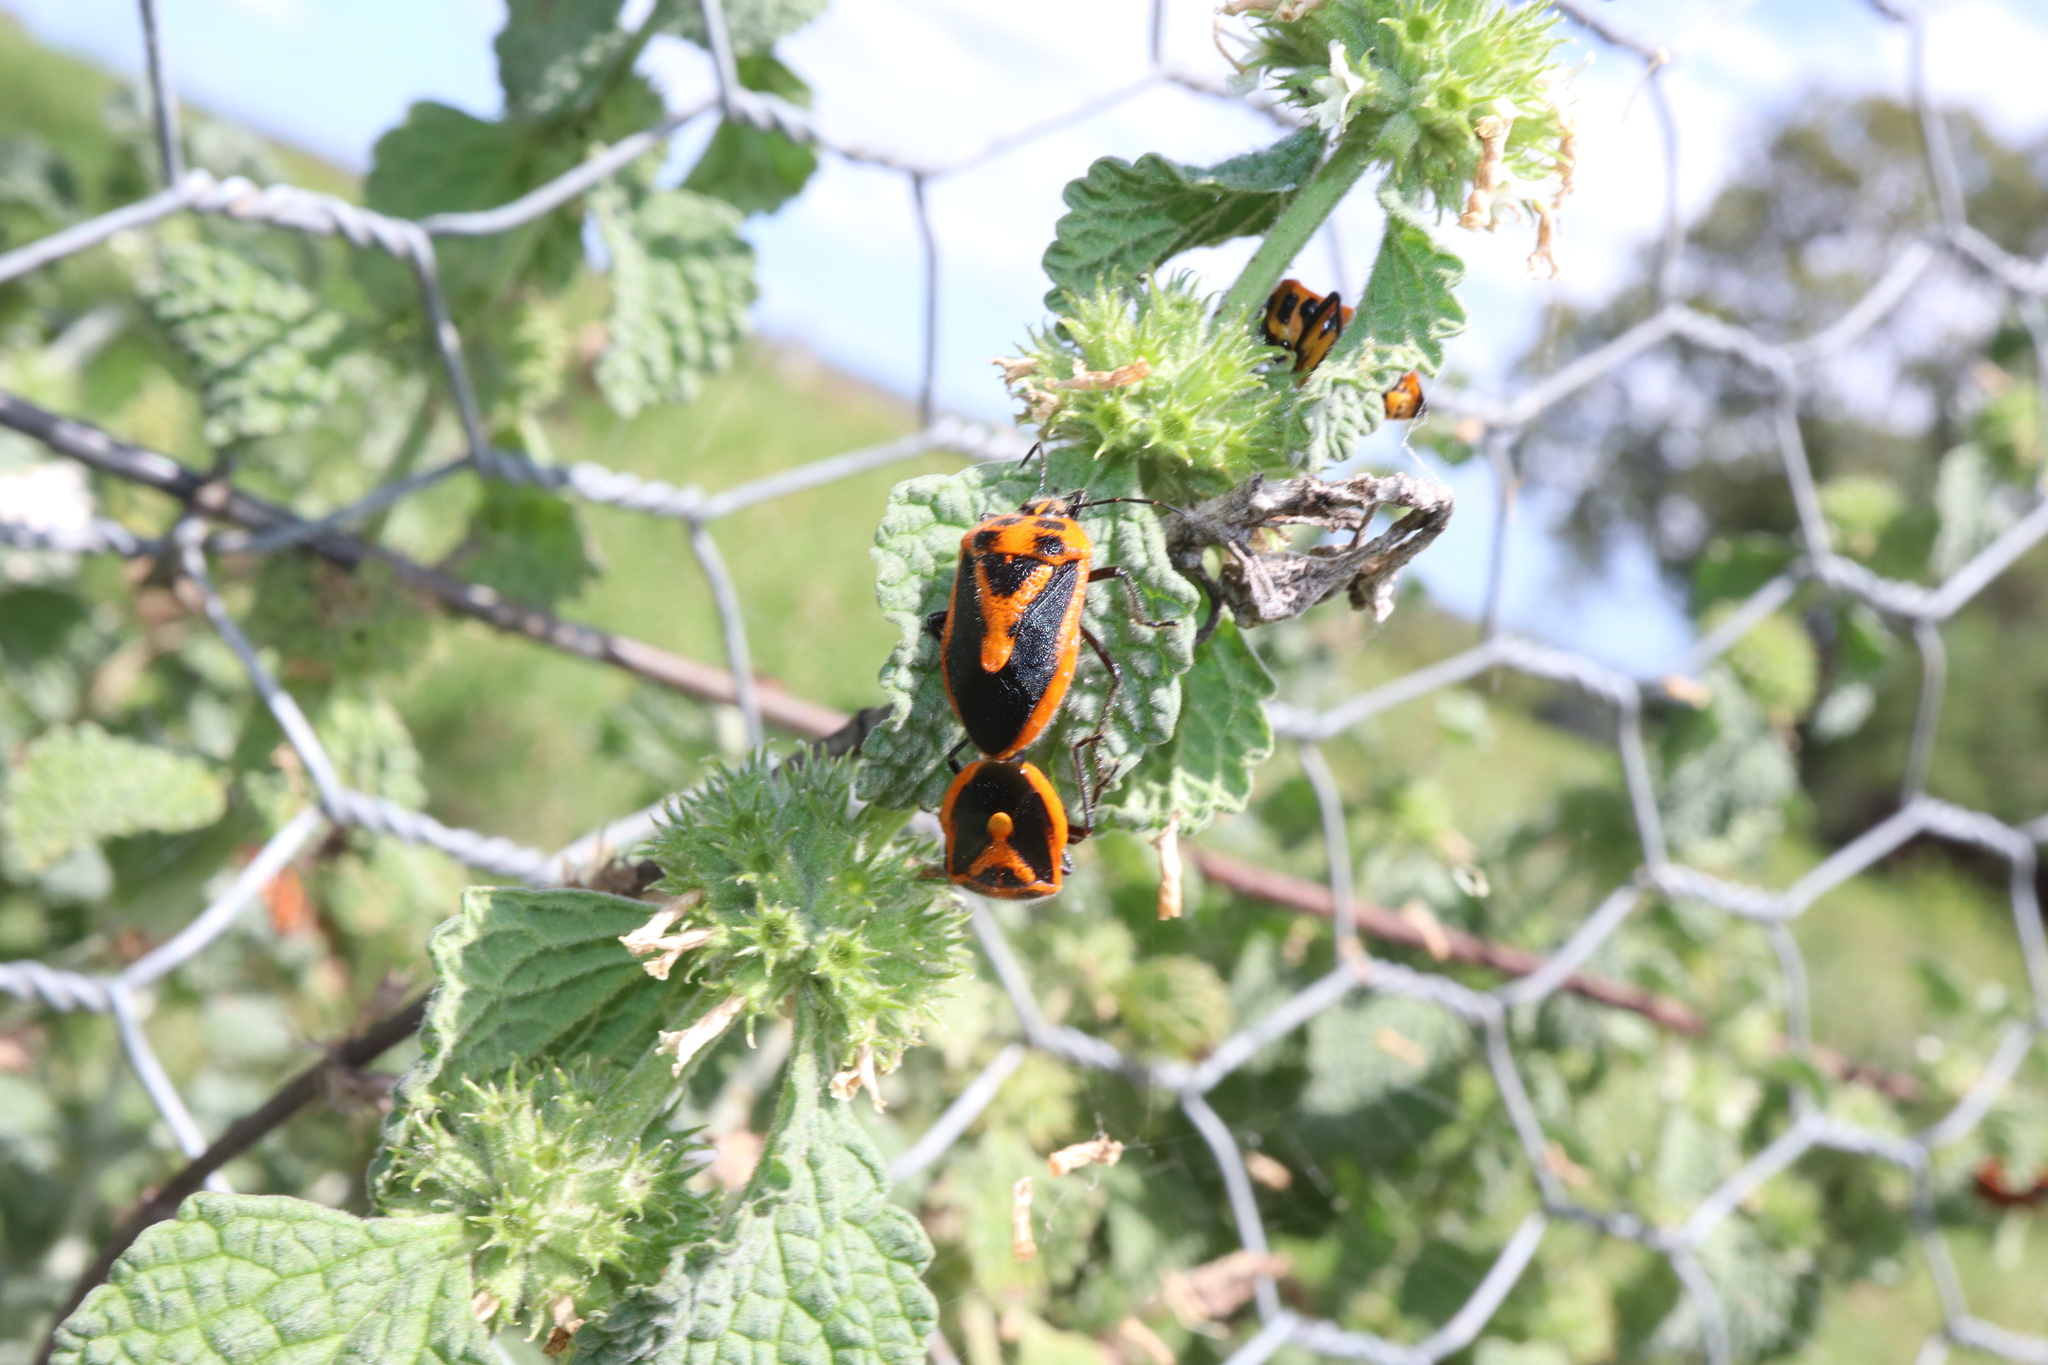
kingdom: Animalia
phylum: Arthropoda
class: Insecta
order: Hemiptera
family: Pentatomidae
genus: Agonoscelis
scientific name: Agonoscelis rutila
